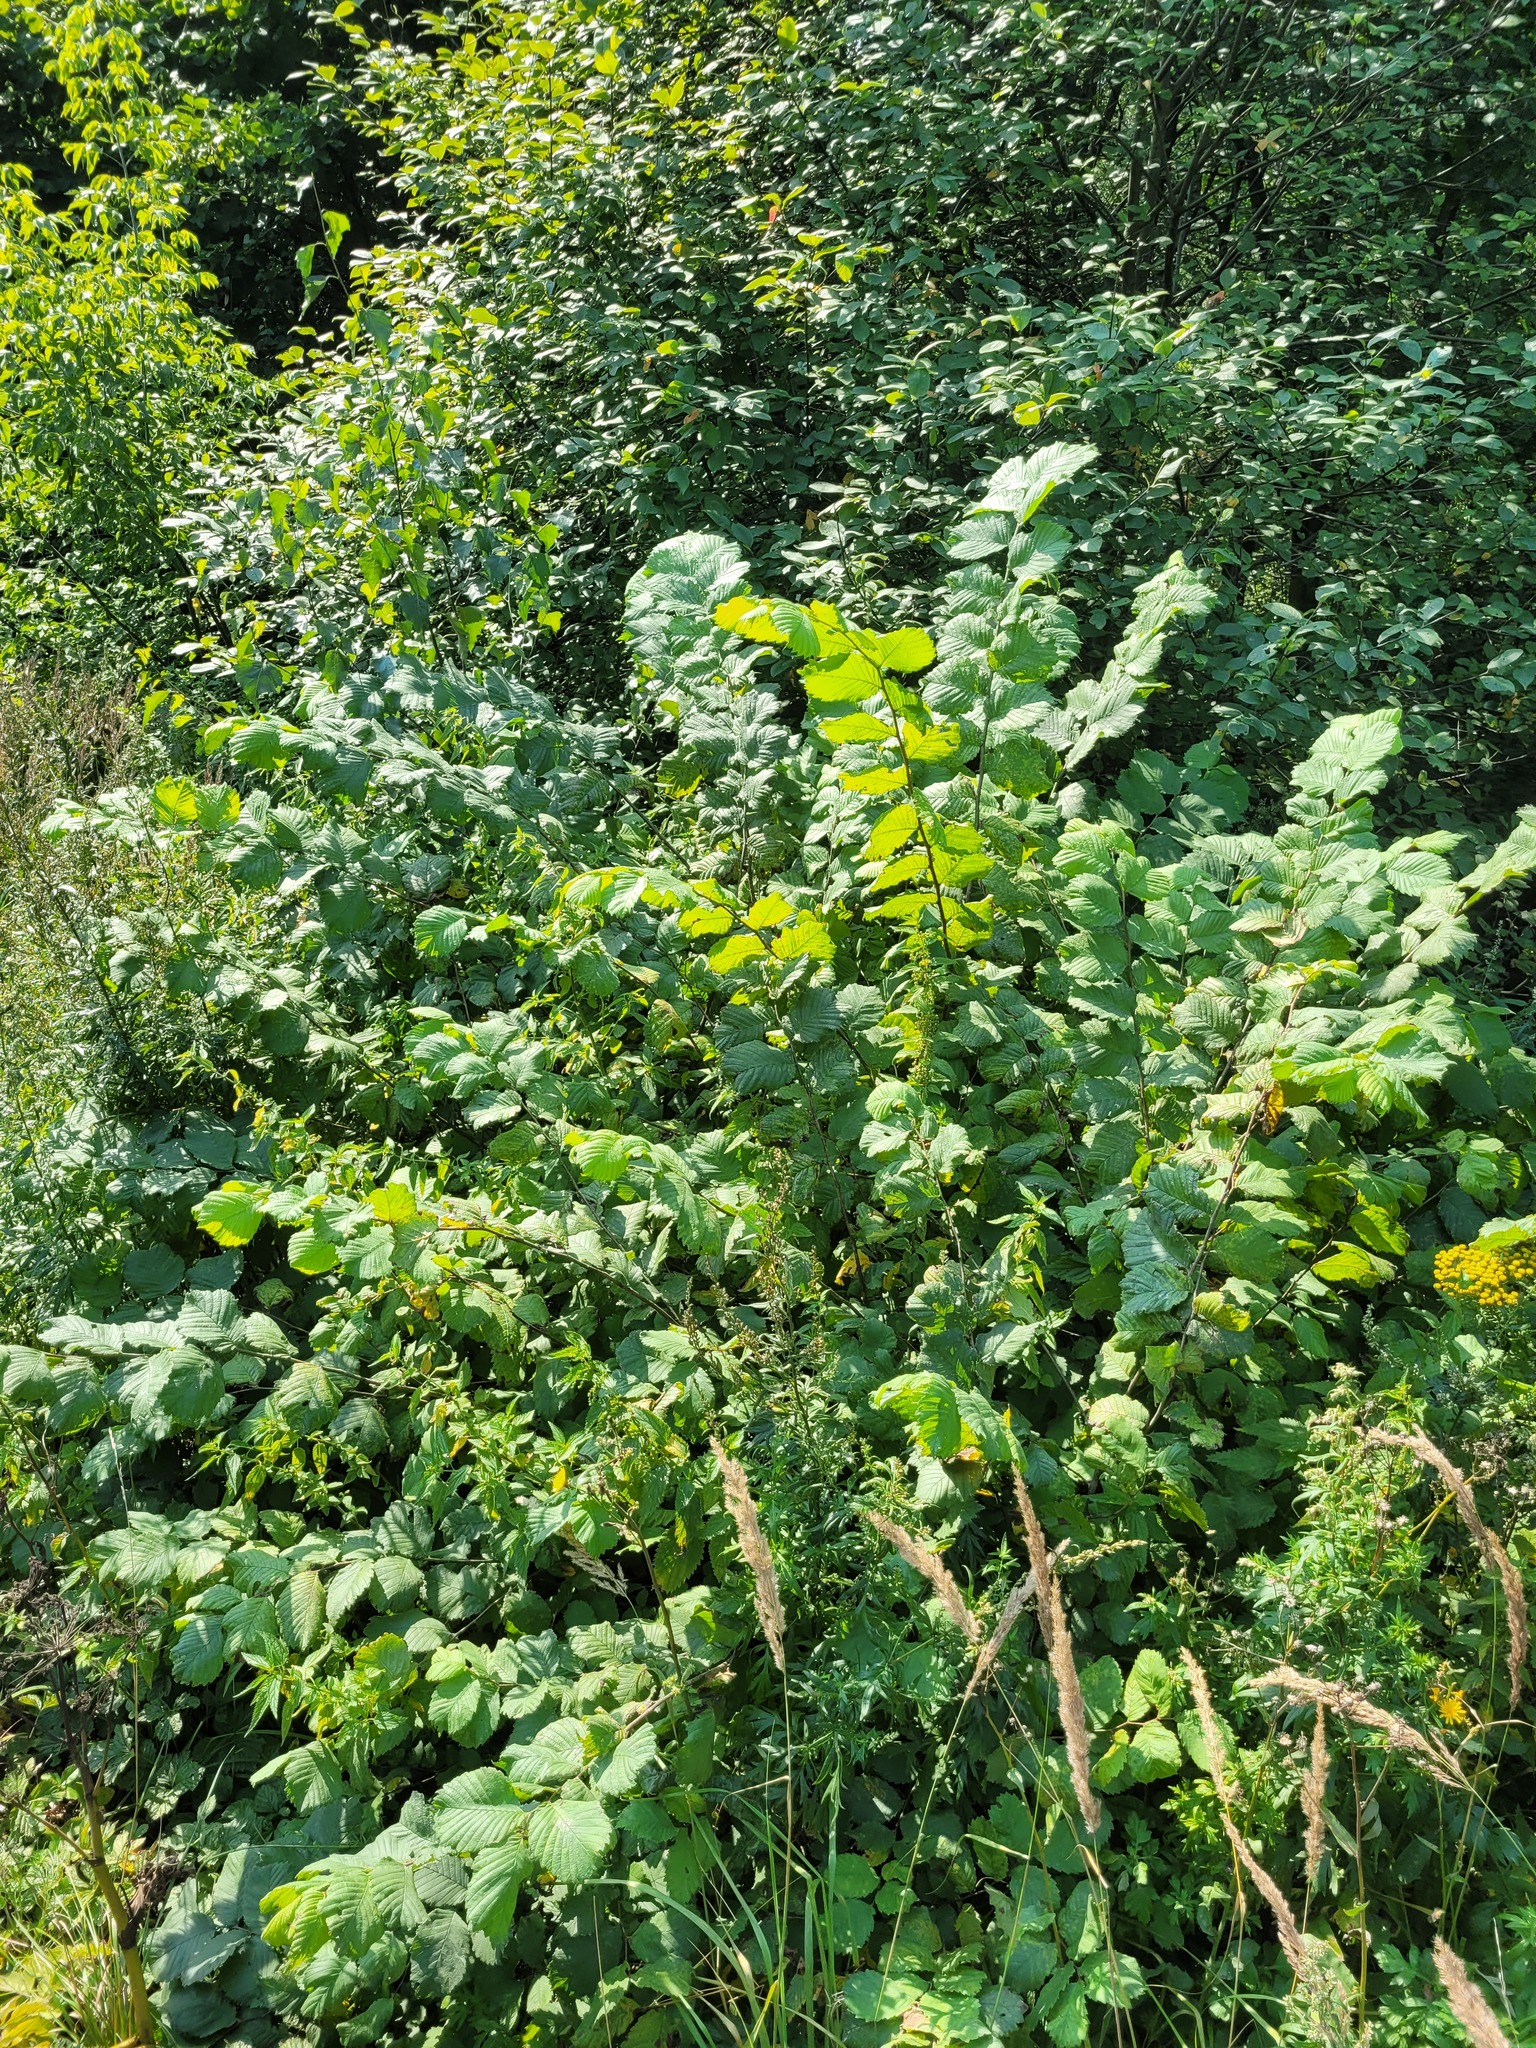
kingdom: Plantae
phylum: Tracheophyta
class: Magnoliopsida
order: Rosales
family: Ulmaceae
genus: Ulmus
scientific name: Ulmus laevis
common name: European white-elm
